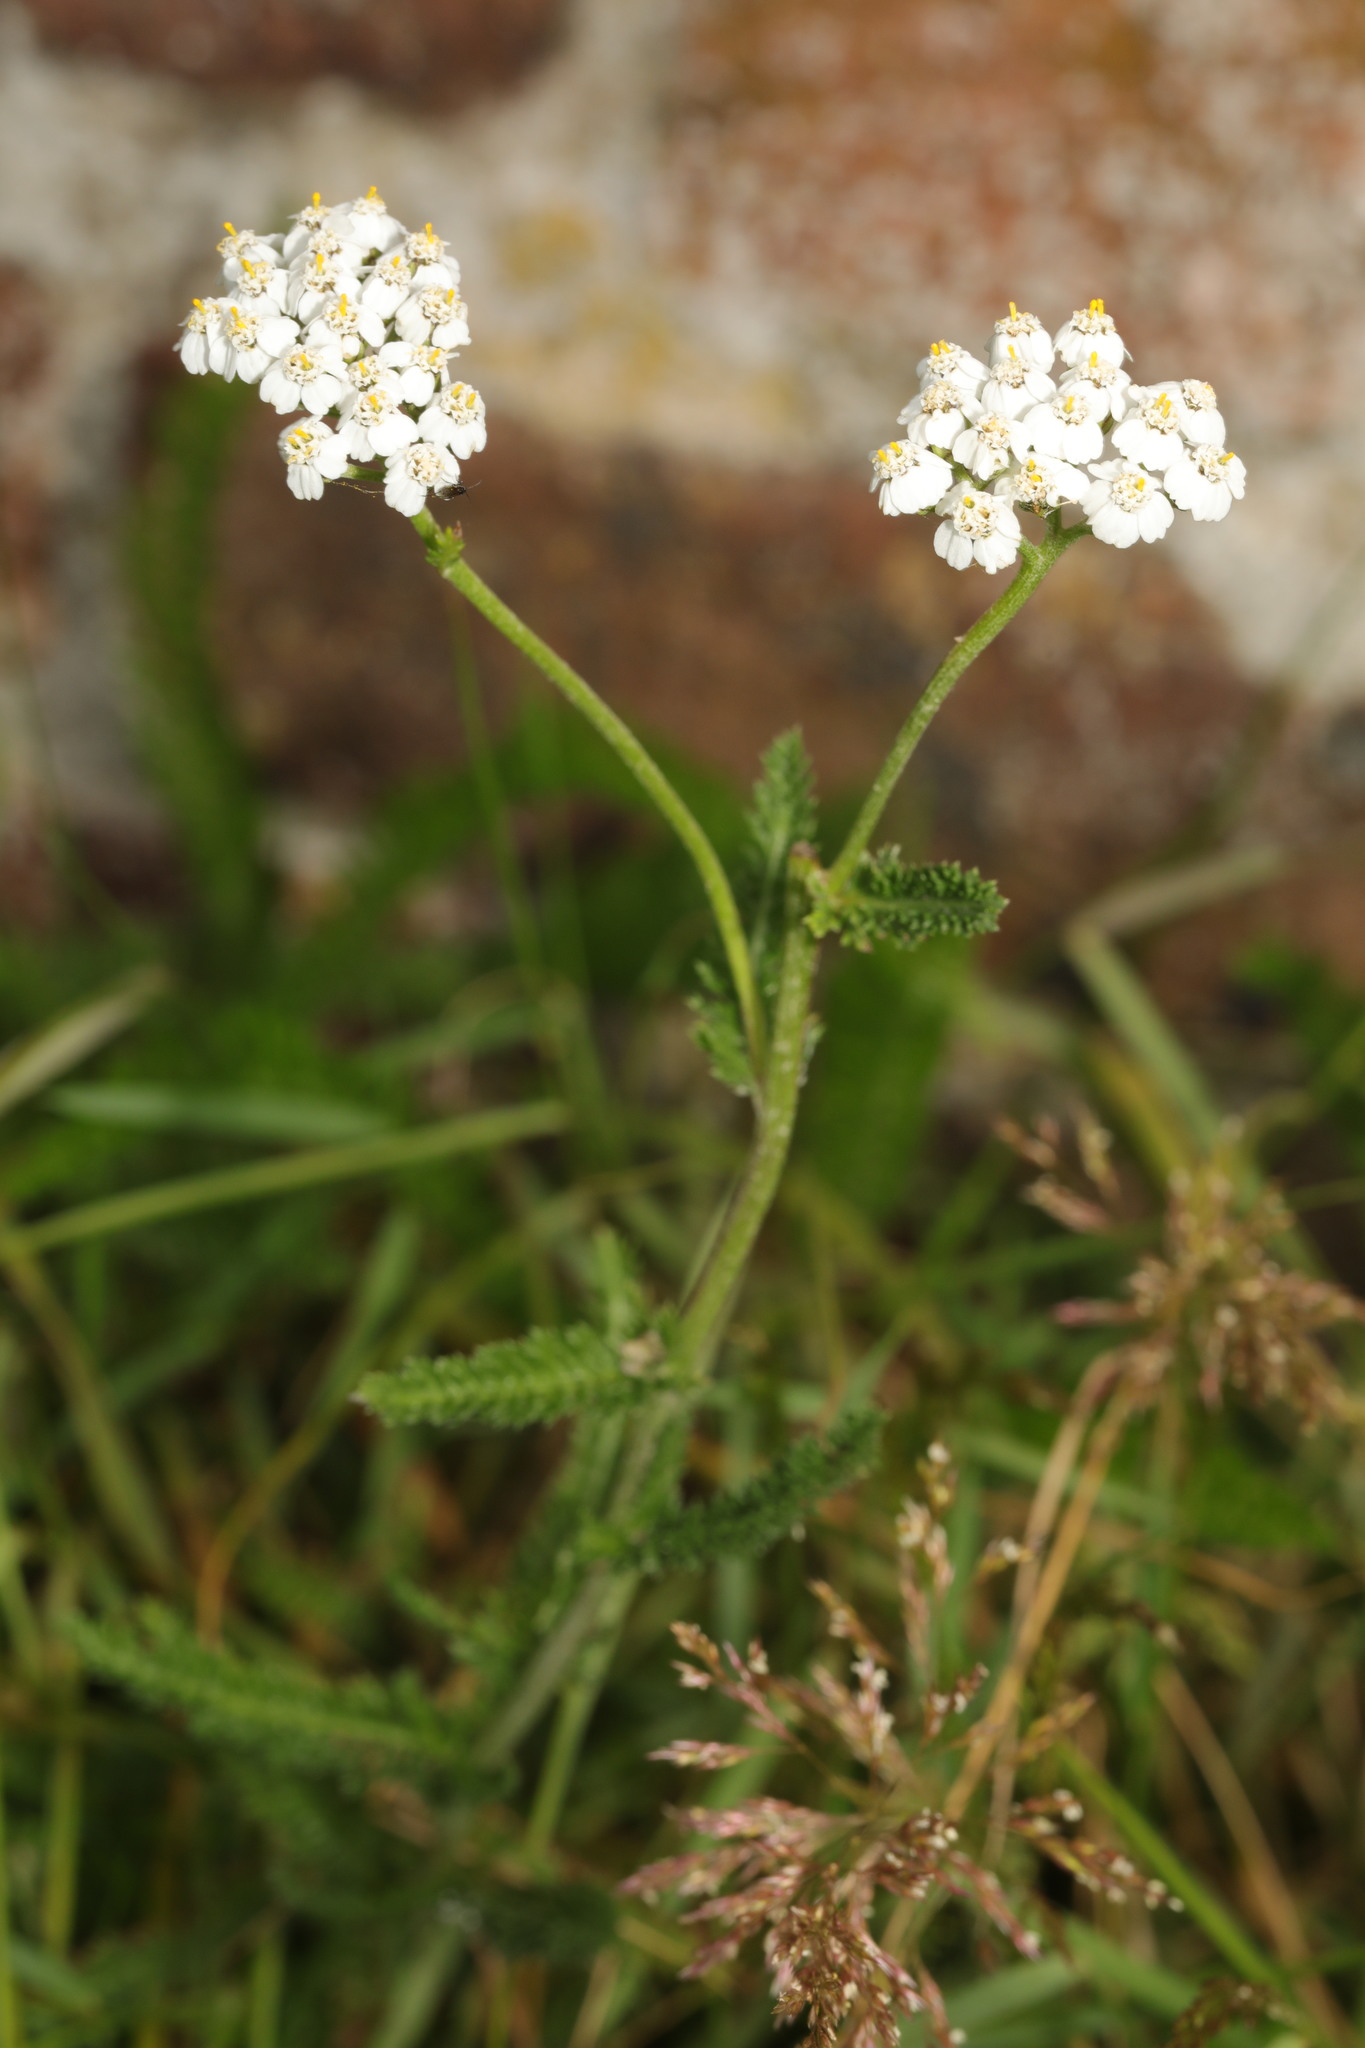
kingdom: Plantae
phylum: Tracheophyta
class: Magnoliopsida
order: Asterales
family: Asteraceae
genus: Achillea
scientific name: Achillea millefolium
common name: Yarrow
